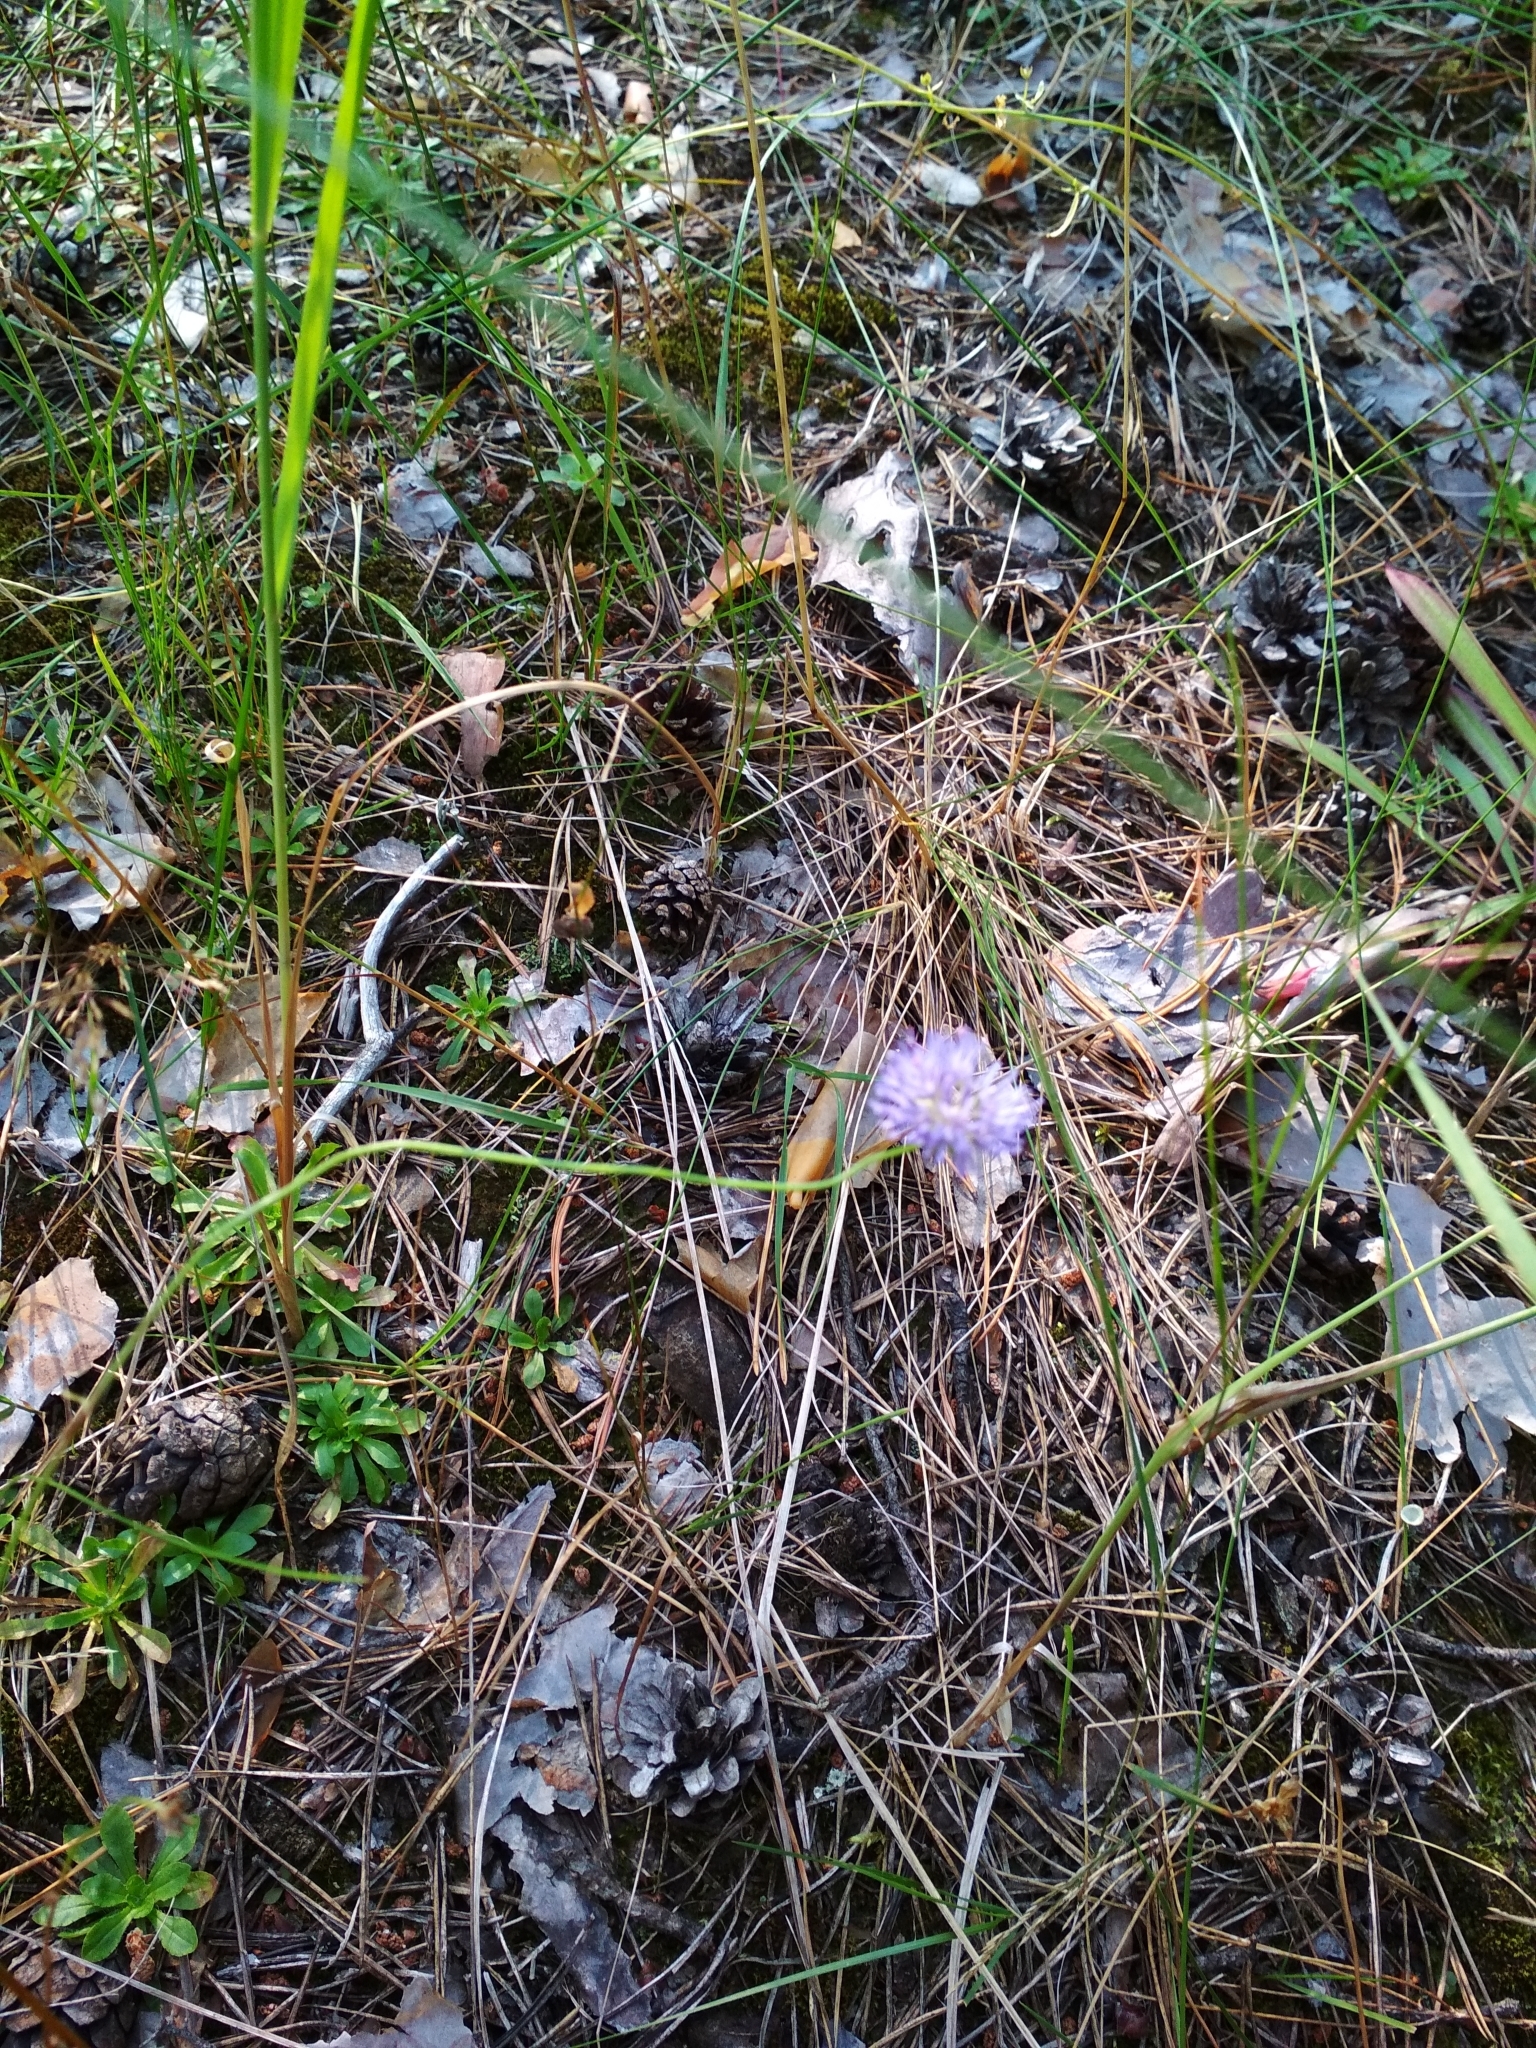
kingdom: Plantae
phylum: Tracheophyta
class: Magnoliopsida
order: Asterales
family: Campanulaceae
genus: Jasione
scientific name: Jasione montana
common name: Sheep's-bit
